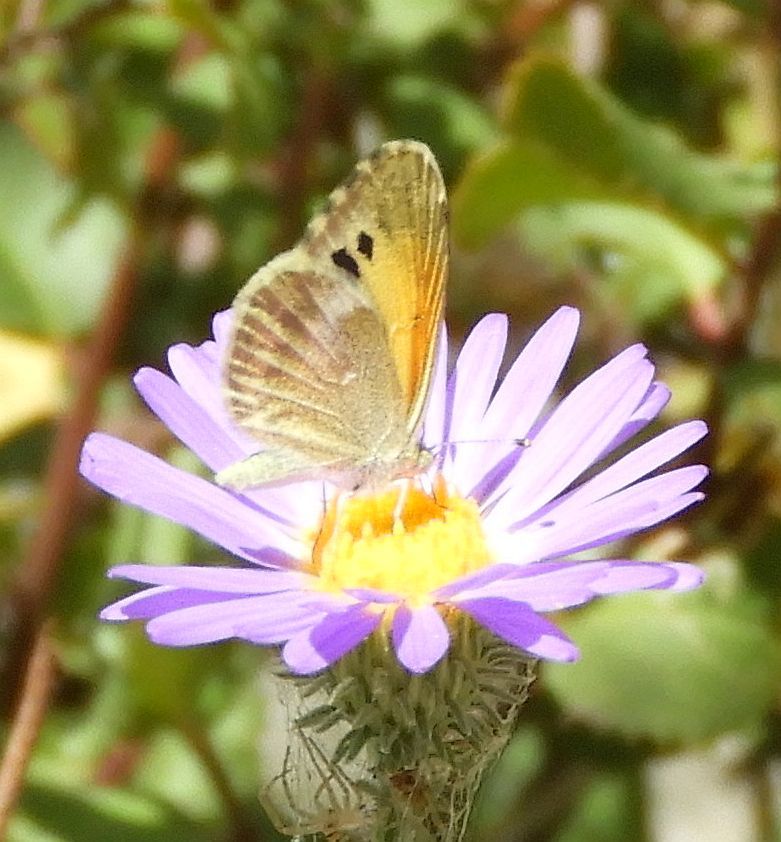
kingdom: Animalia
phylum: Arthropoda
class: Insecta
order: Lepidoptera
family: Pieridae
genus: Nathalis
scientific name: Nathalis iole
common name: Dainty sulphur
